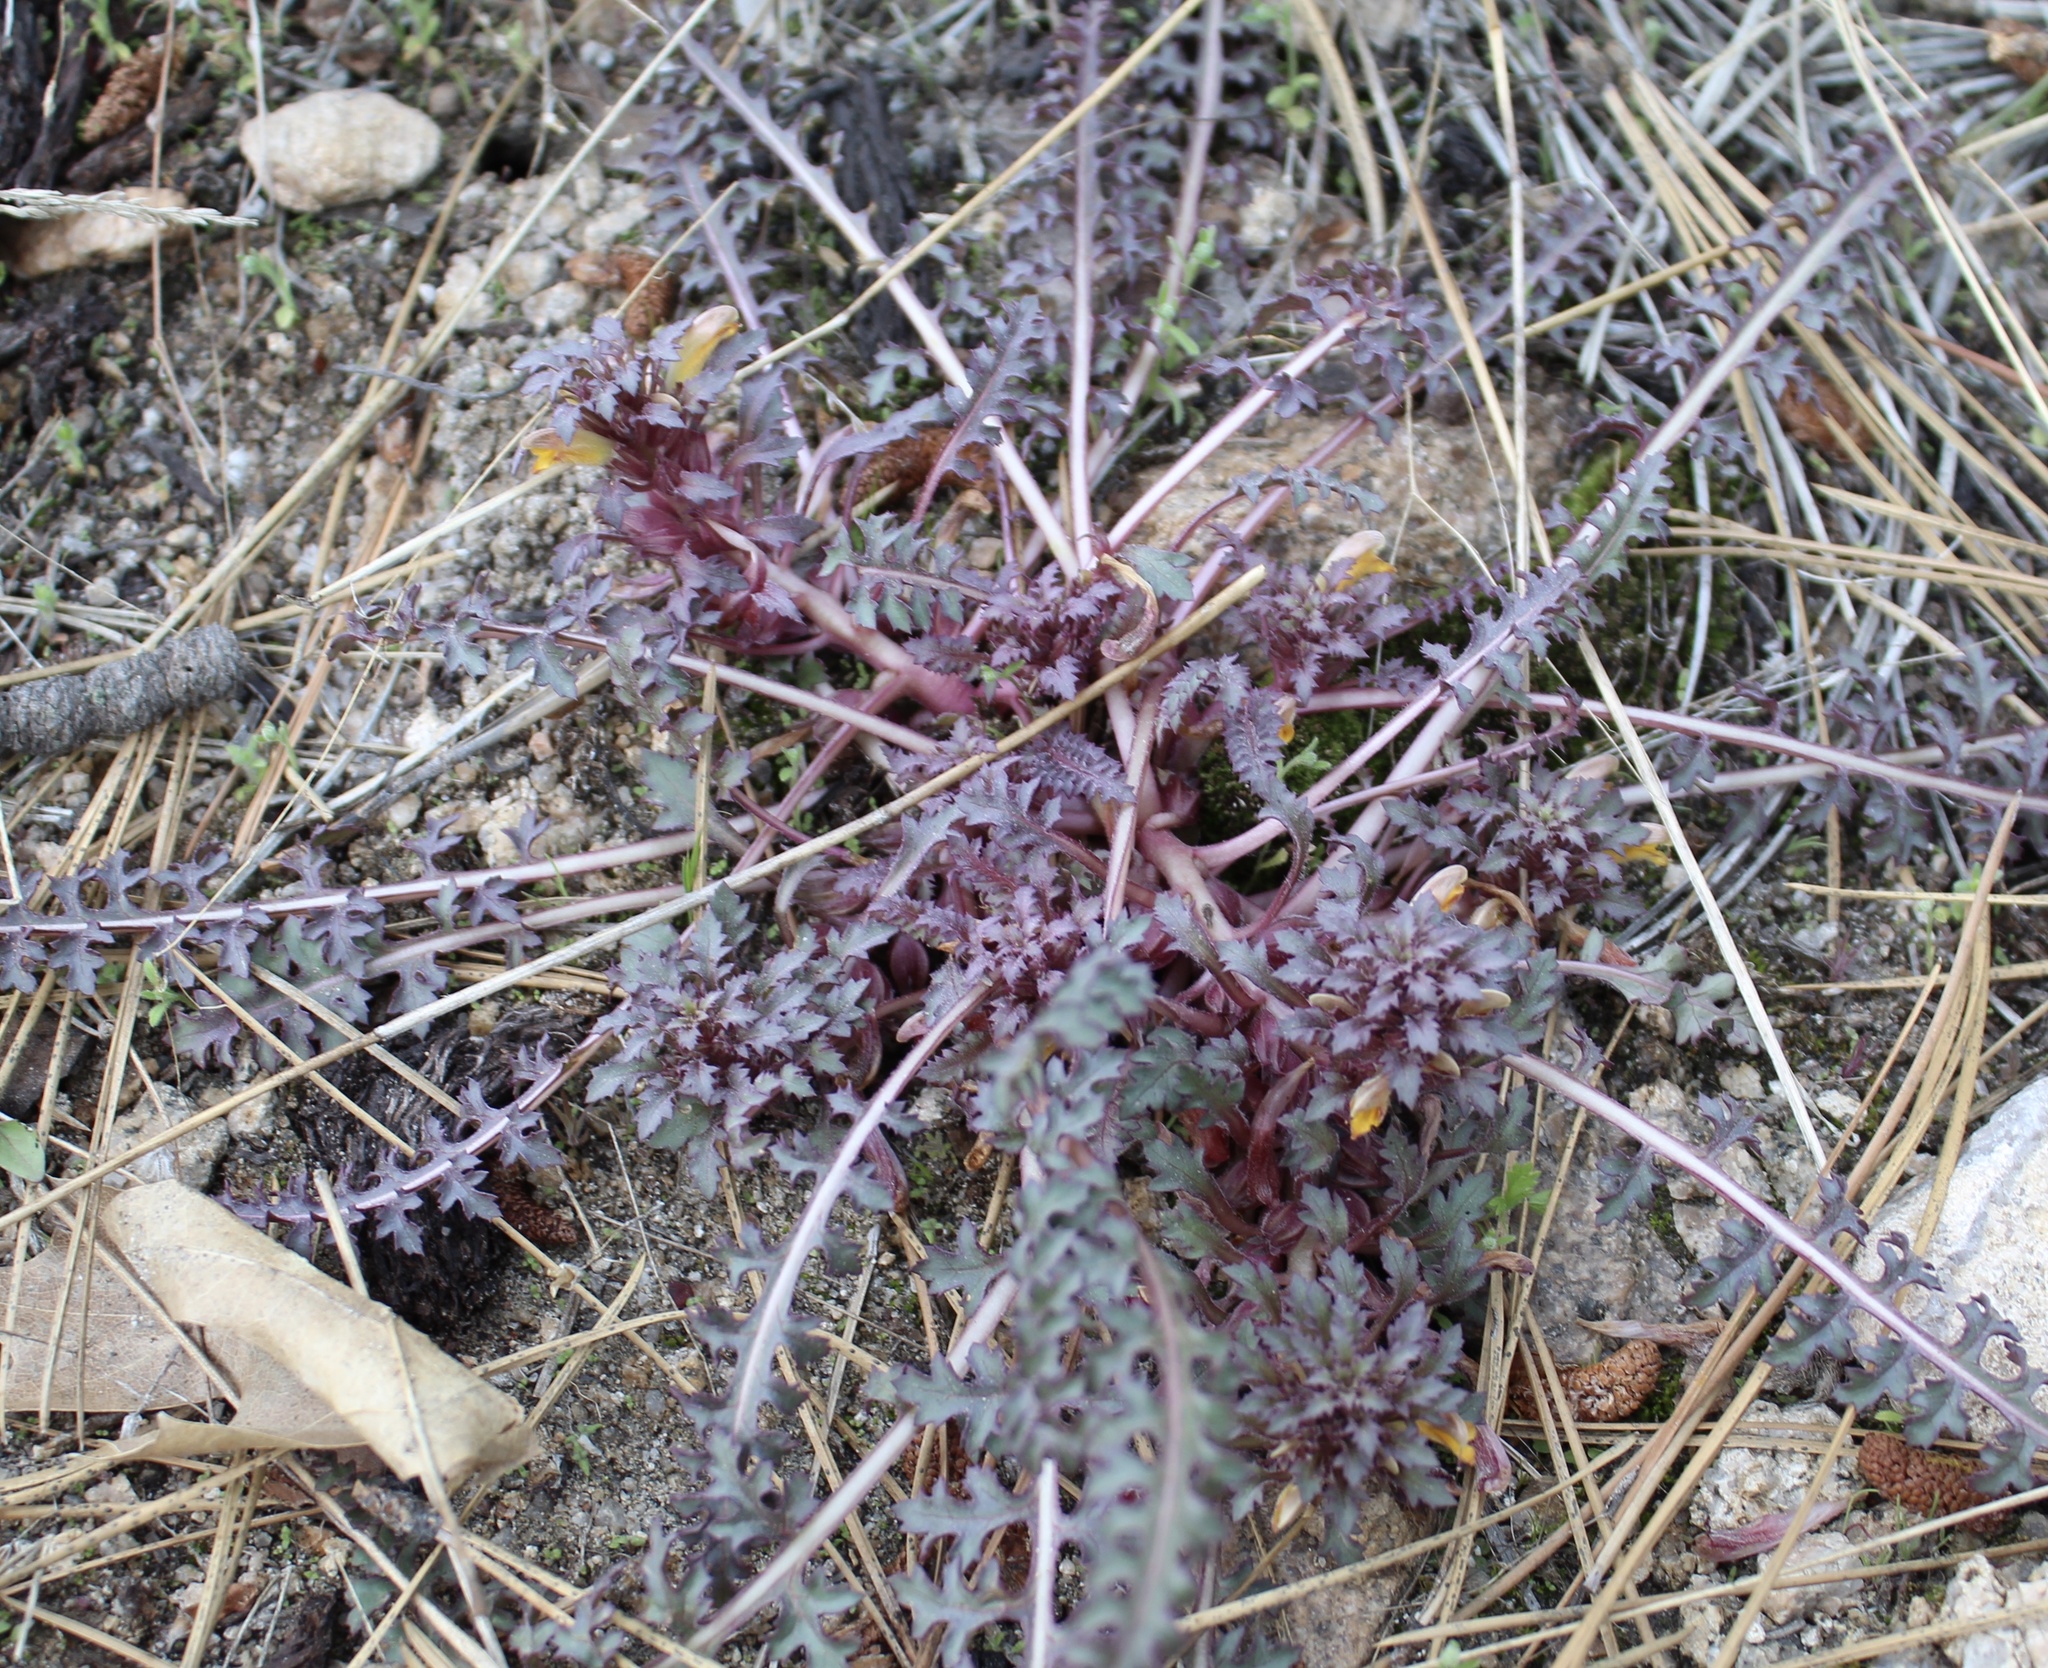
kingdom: Plantae
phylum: Tracheophyta
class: Magnoliopsida
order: Lamiales
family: Orobanchaceae
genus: Pedicularis
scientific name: Pedicularis semibarbata
